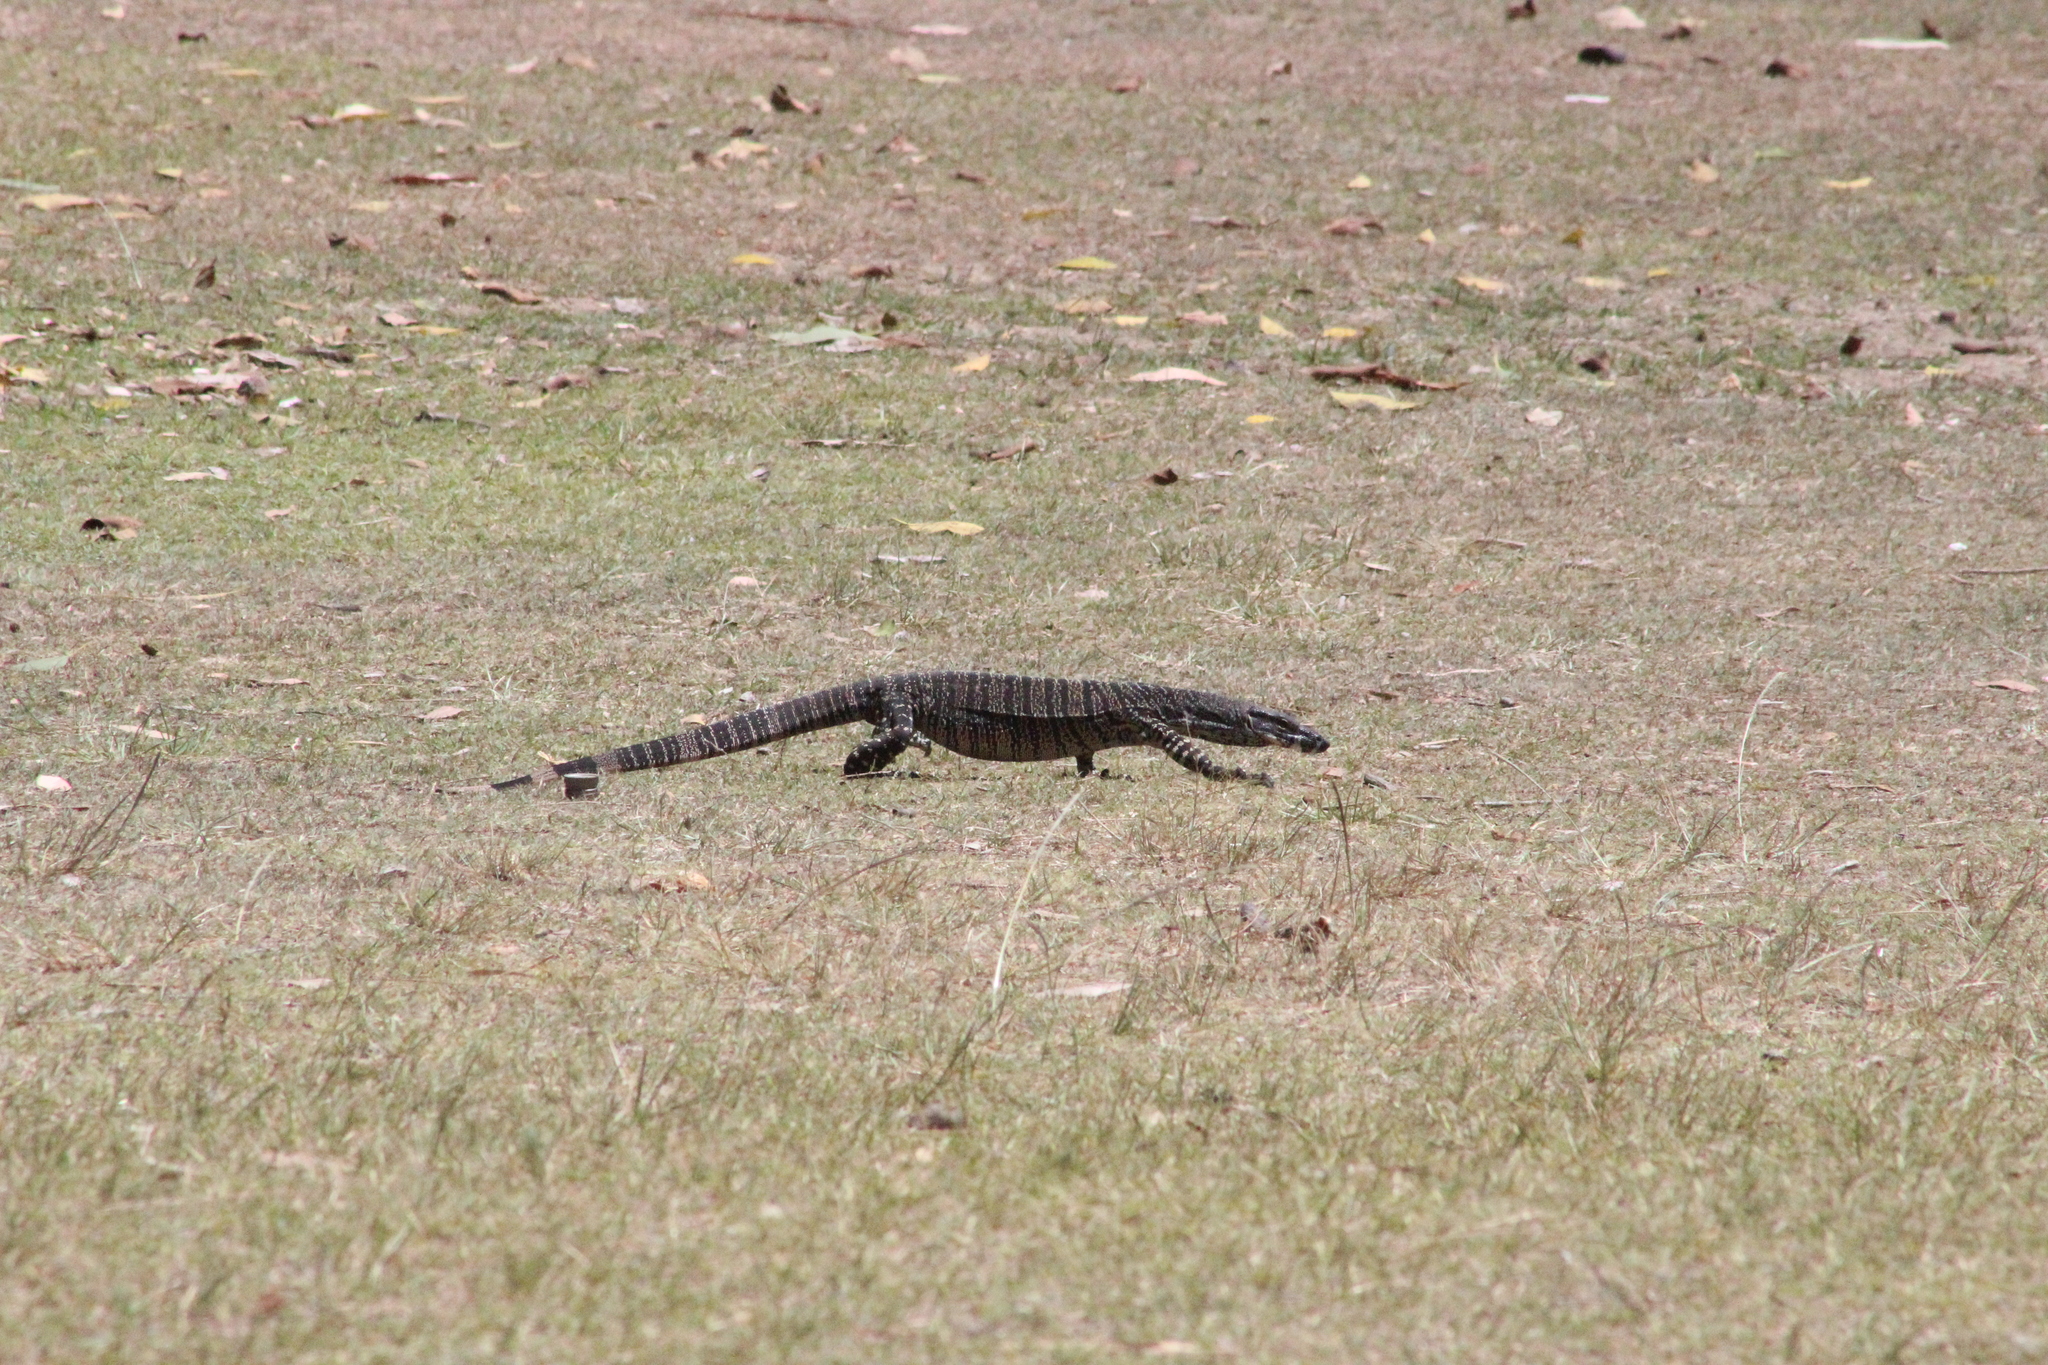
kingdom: Animalia
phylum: Chordata
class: Squamata
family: Varanidae
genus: Varanus
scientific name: Varanus varius
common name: Lace monitor
